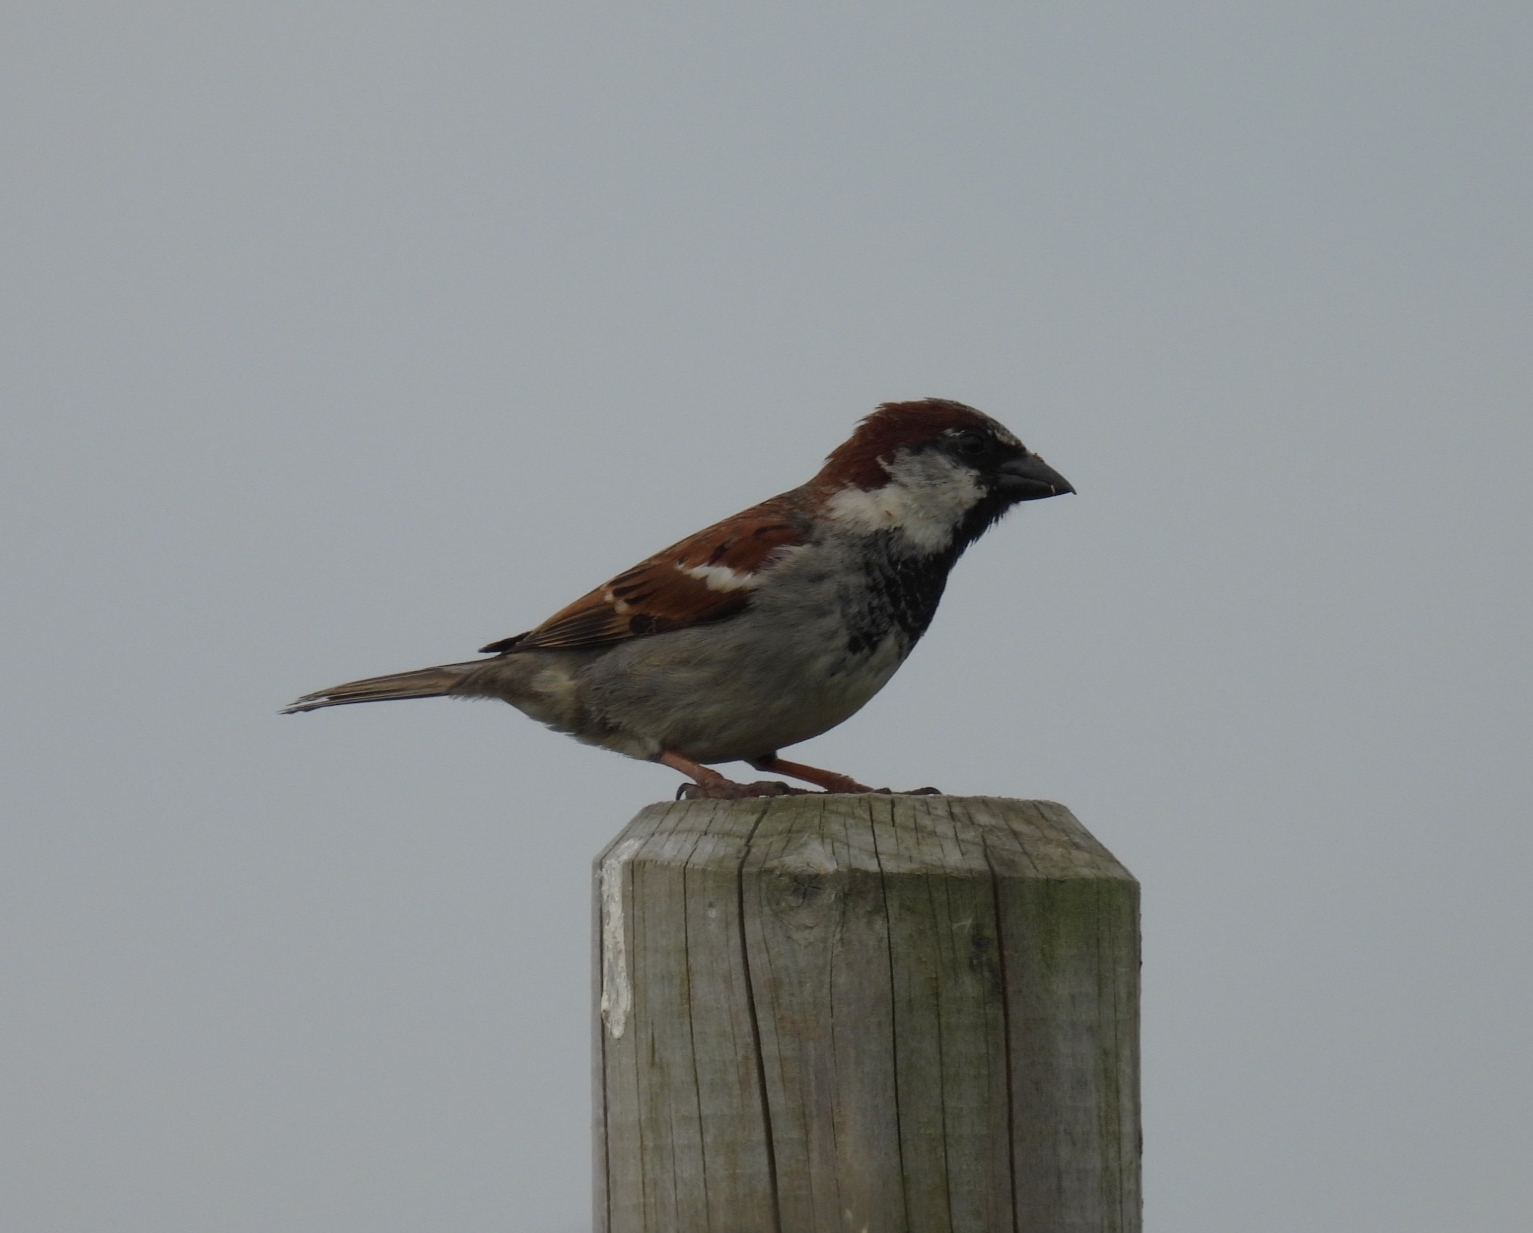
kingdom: Animalia
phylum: Chordata
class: Aves
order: Passeriformes
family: Passeridae
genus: Passer
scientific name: Passer domesticus
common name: House sparrow
